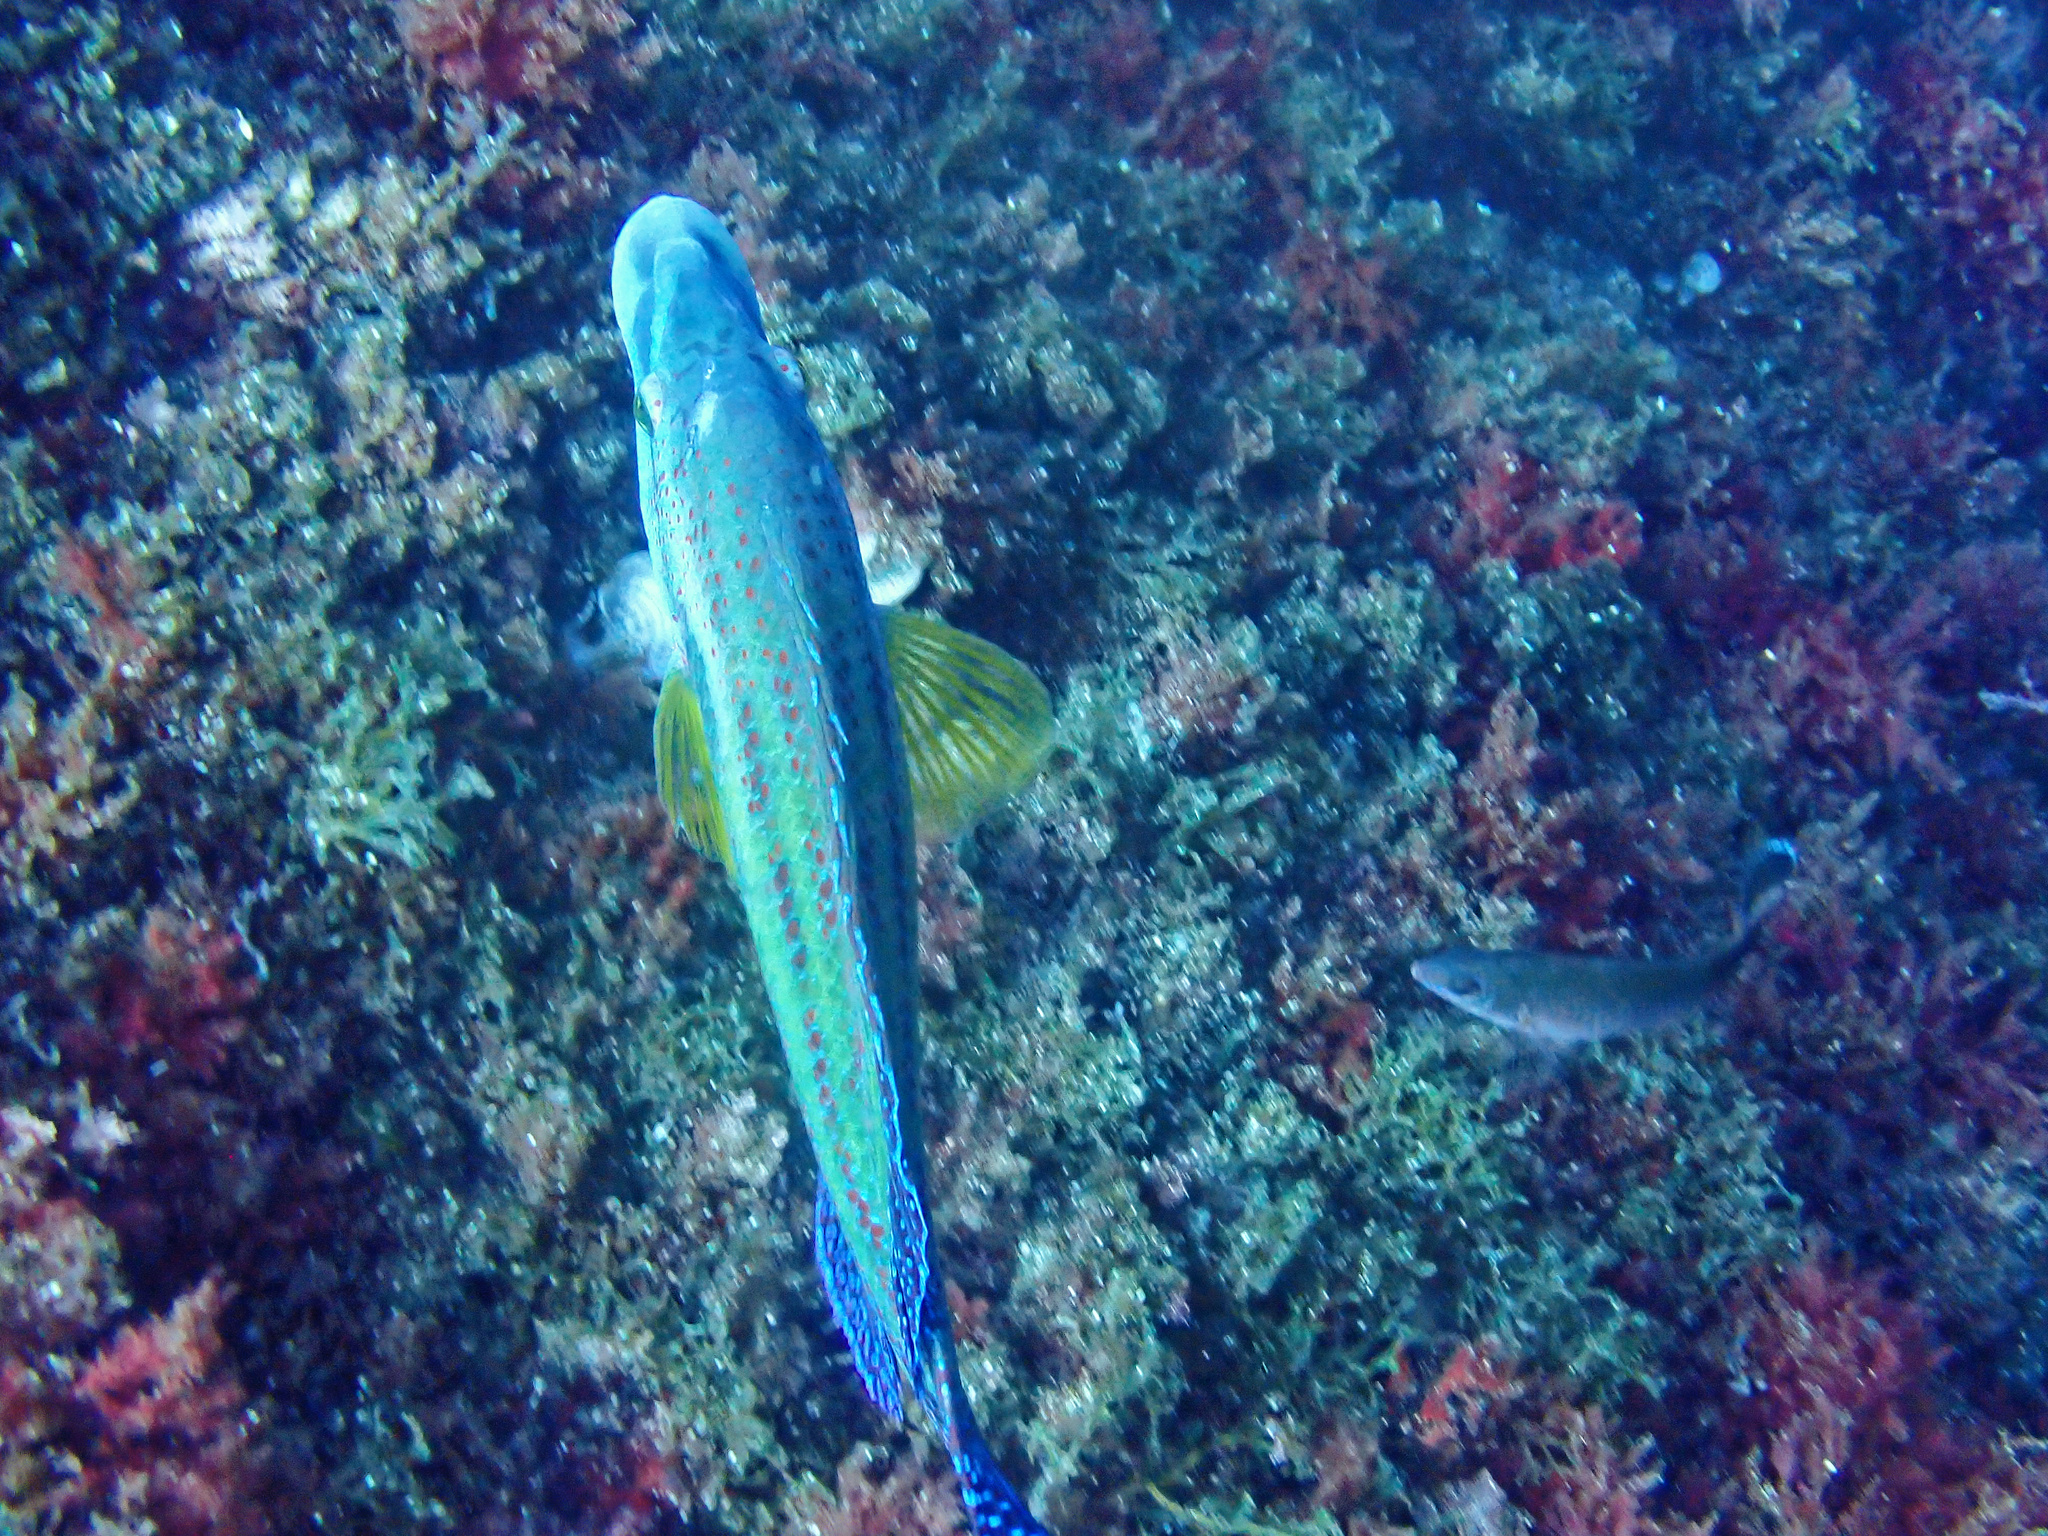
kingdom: Animalia
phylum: Chordata
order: Perciformes
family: Labridae
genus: Symphodus
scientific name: Symphodus tinca
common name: Peacock wrasse
